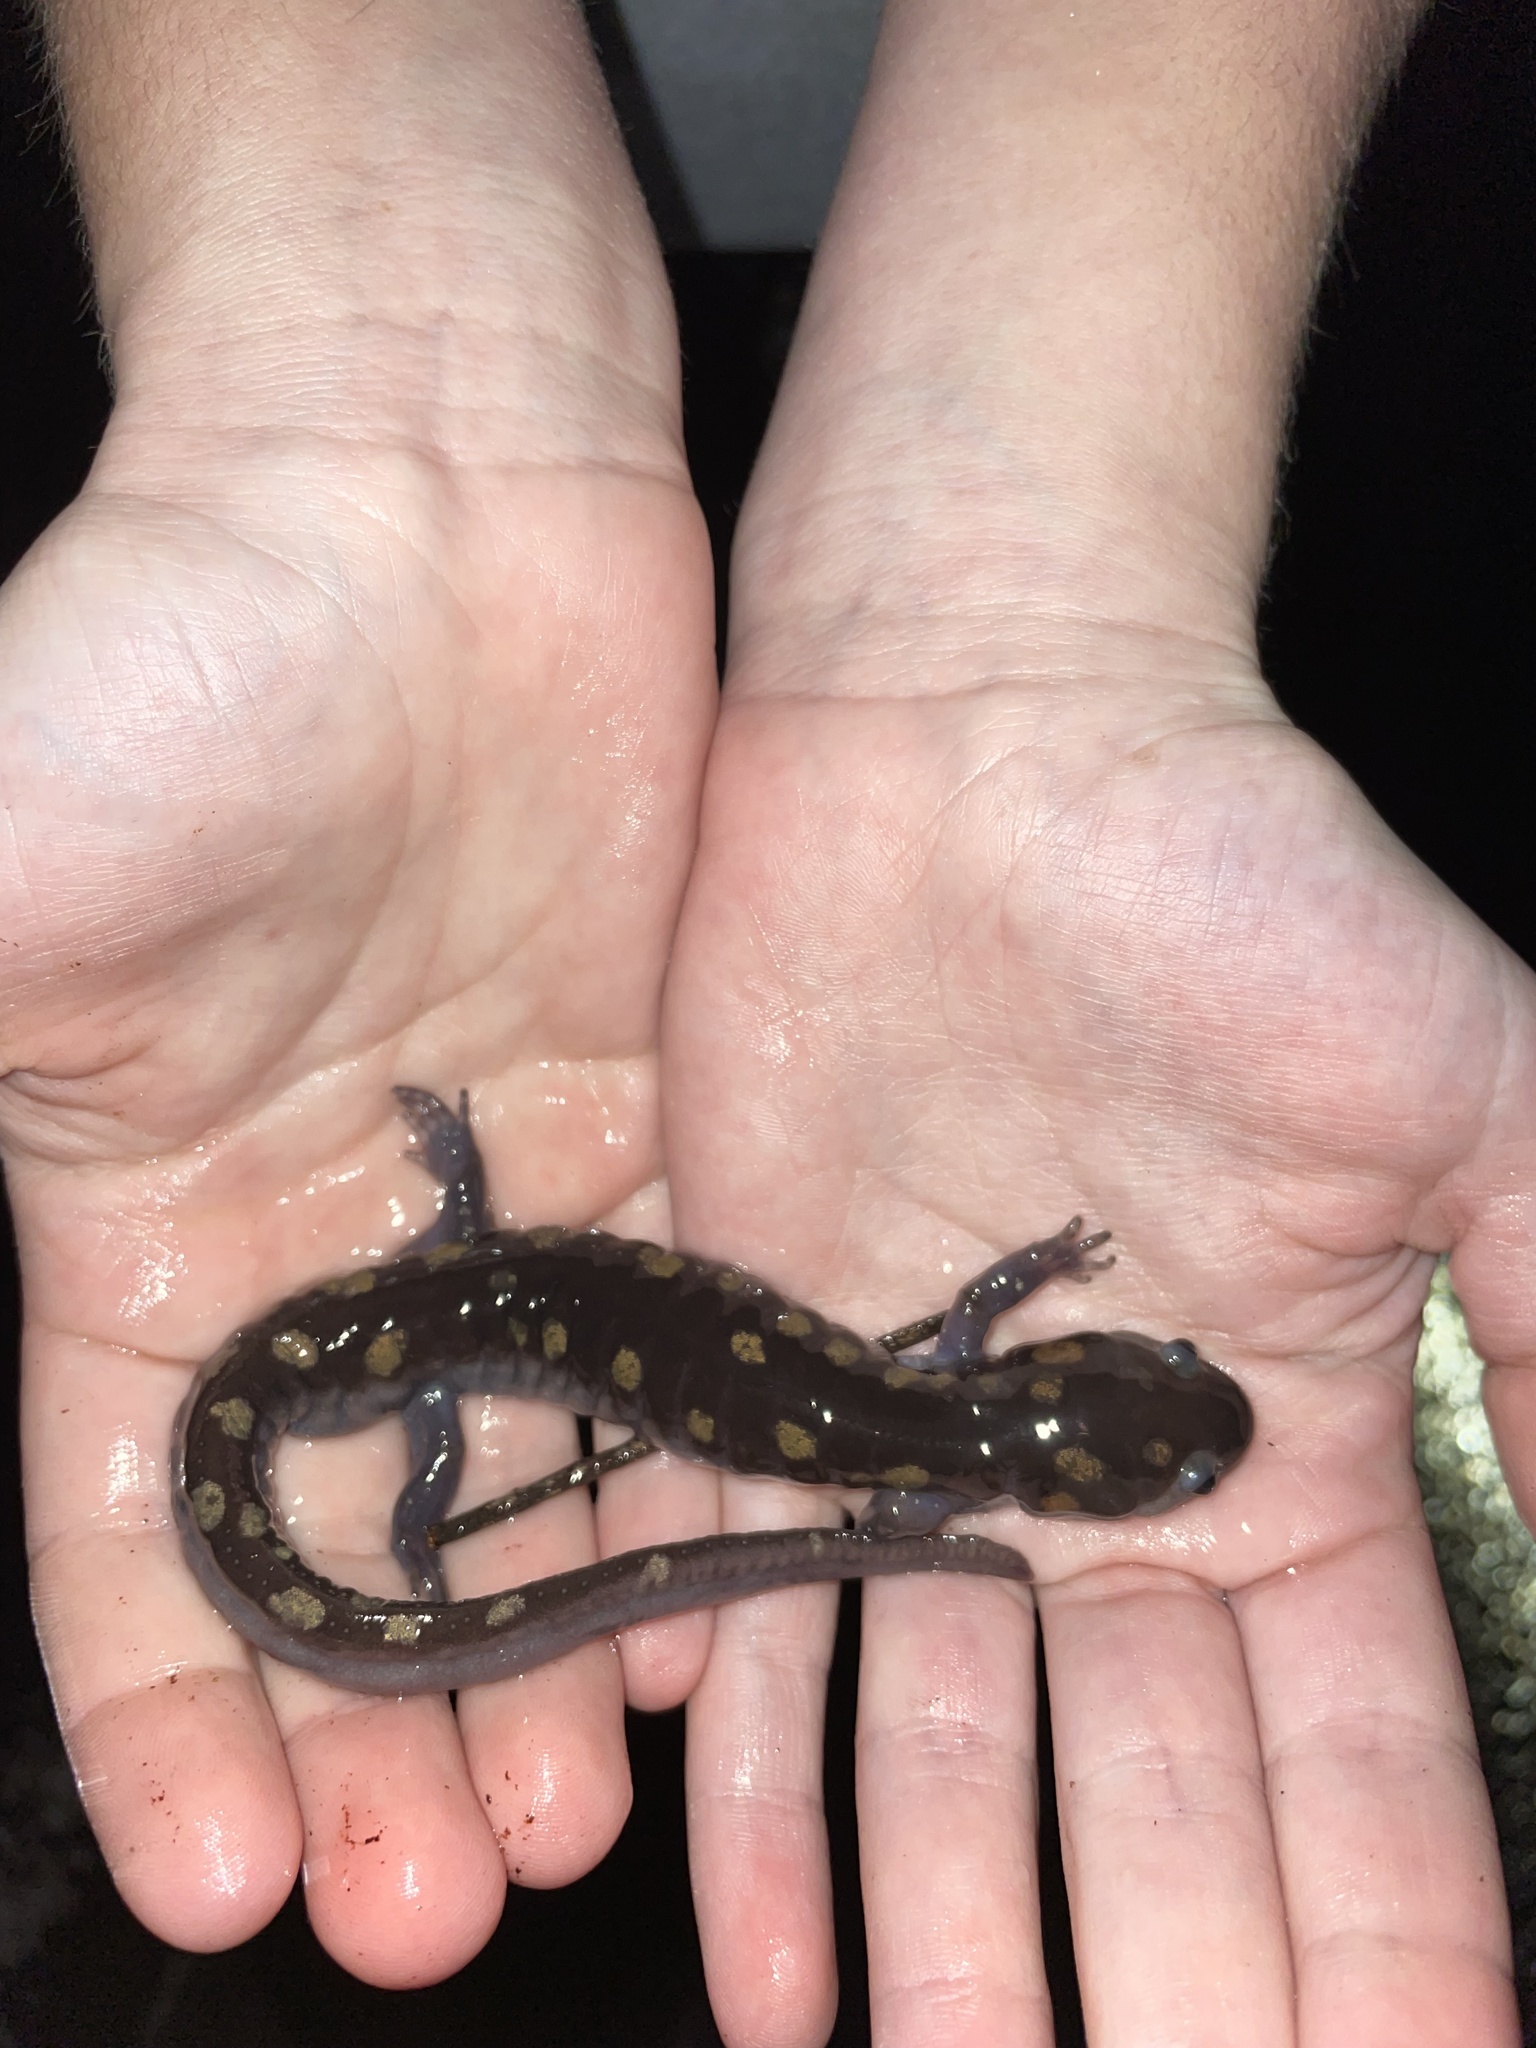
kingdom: Animalia
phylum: Chordata
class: Amphibia
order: Caudata
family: Ambystomatidae
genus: Ambystoma
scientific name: Ambystoma maculatum
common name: Spotted salamander
